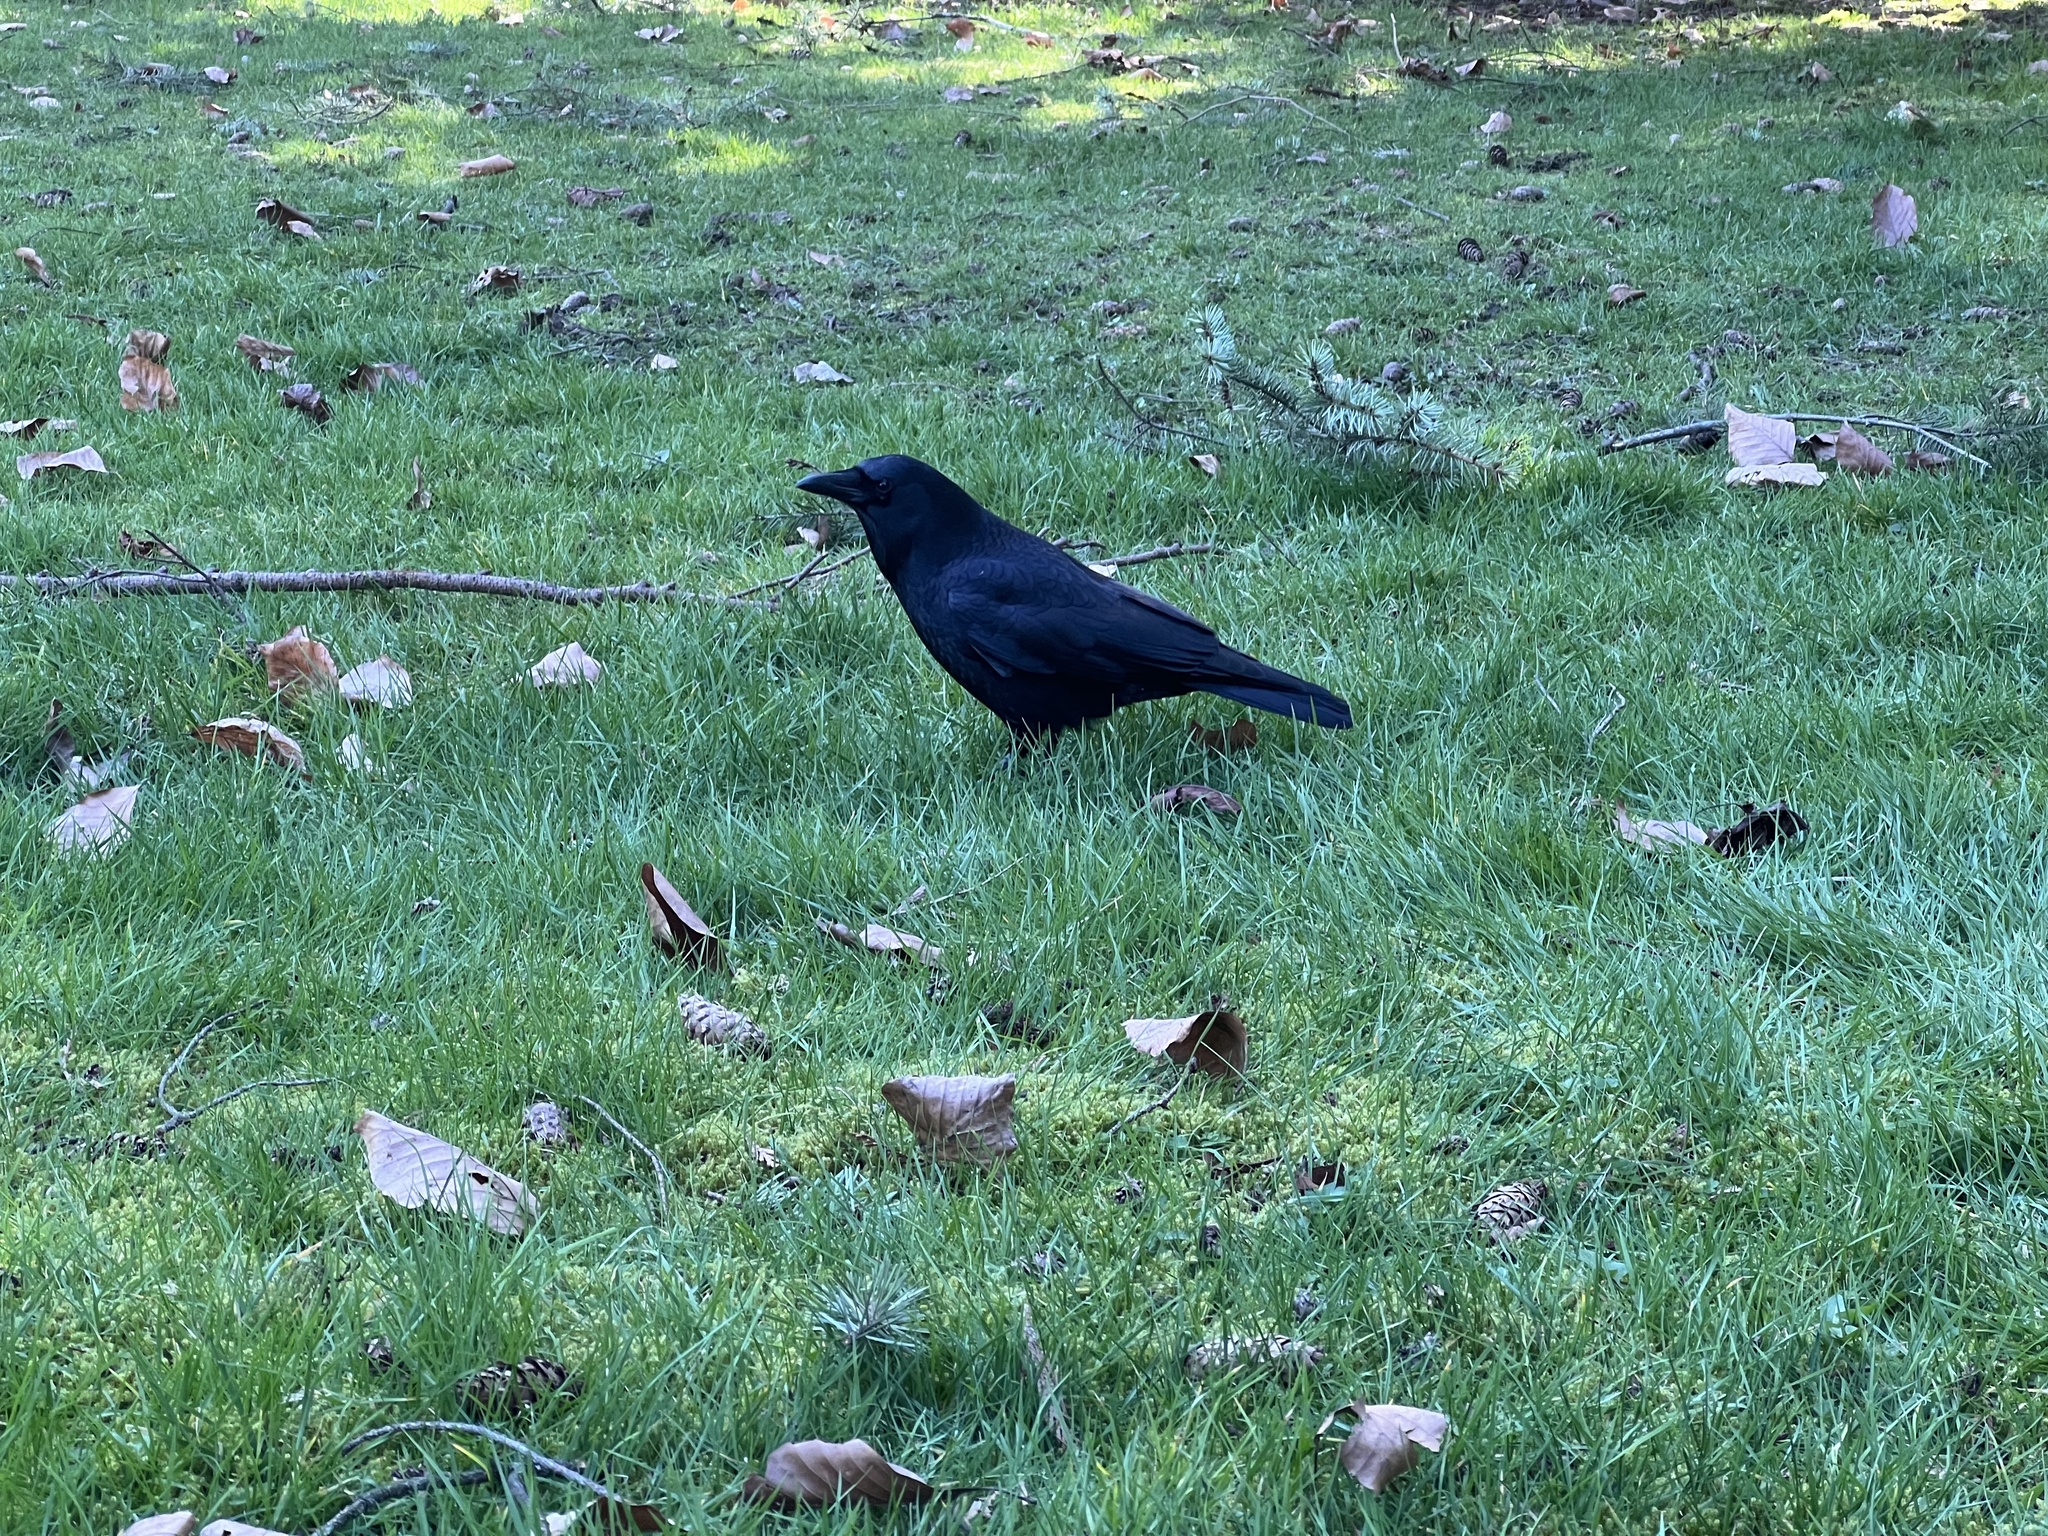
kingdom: Animalia
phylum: Chordata
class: Aves
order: Passeriformes
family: Corvidae
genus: Corvus
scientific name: Corvus brachyrhynchos
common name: American crow
